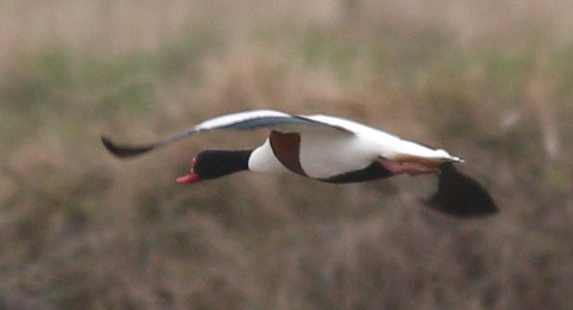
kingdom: Animalia
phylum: Chordata
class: Aves
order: Anseriformes
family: Anatidae
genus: Tadorna
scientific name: Tadorna tadorna
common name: Common shelduck
